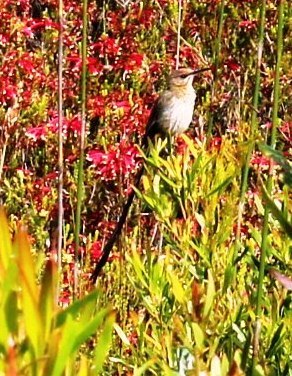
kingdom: Animalia
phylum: Chordata
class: Aves
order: Passeriformes
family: Promeropidae
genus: Promerops
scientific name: Promerops cafer
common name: Cape sugarbird
